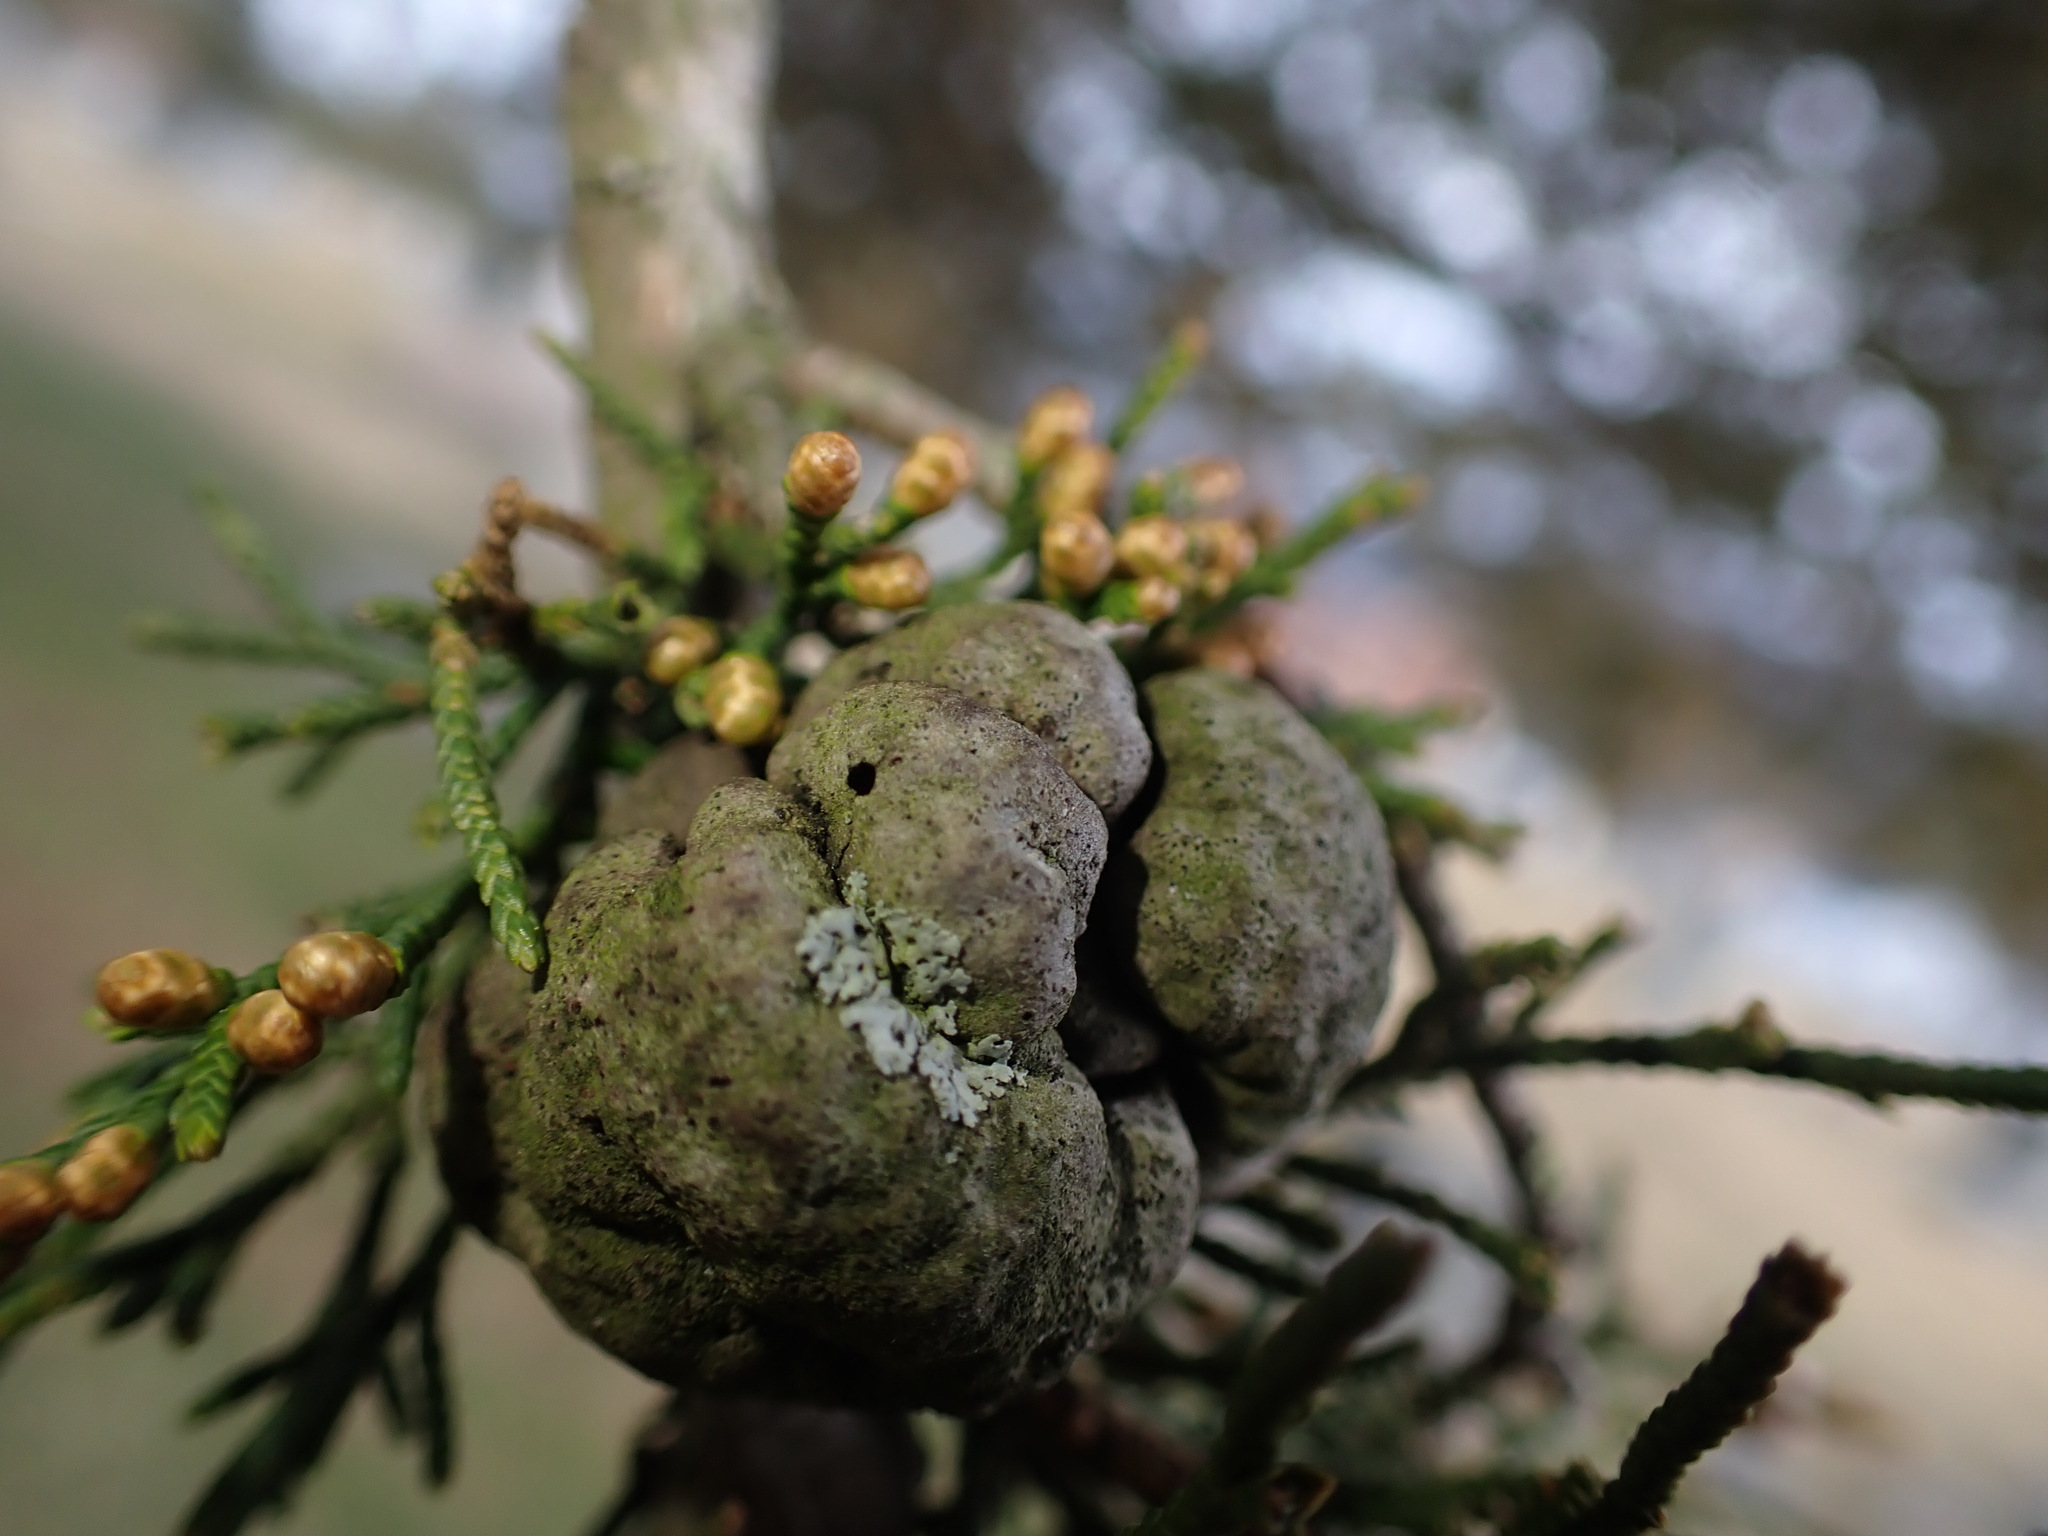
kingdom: Fungi
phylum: Basidiomycota
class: Pucciniomycetes
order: Pucciniales
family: Gymnosporangiaceae
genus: Gymnosporangium
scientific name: Gymnosporangium juniperi-virginianae
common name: Juniper-apple rust
